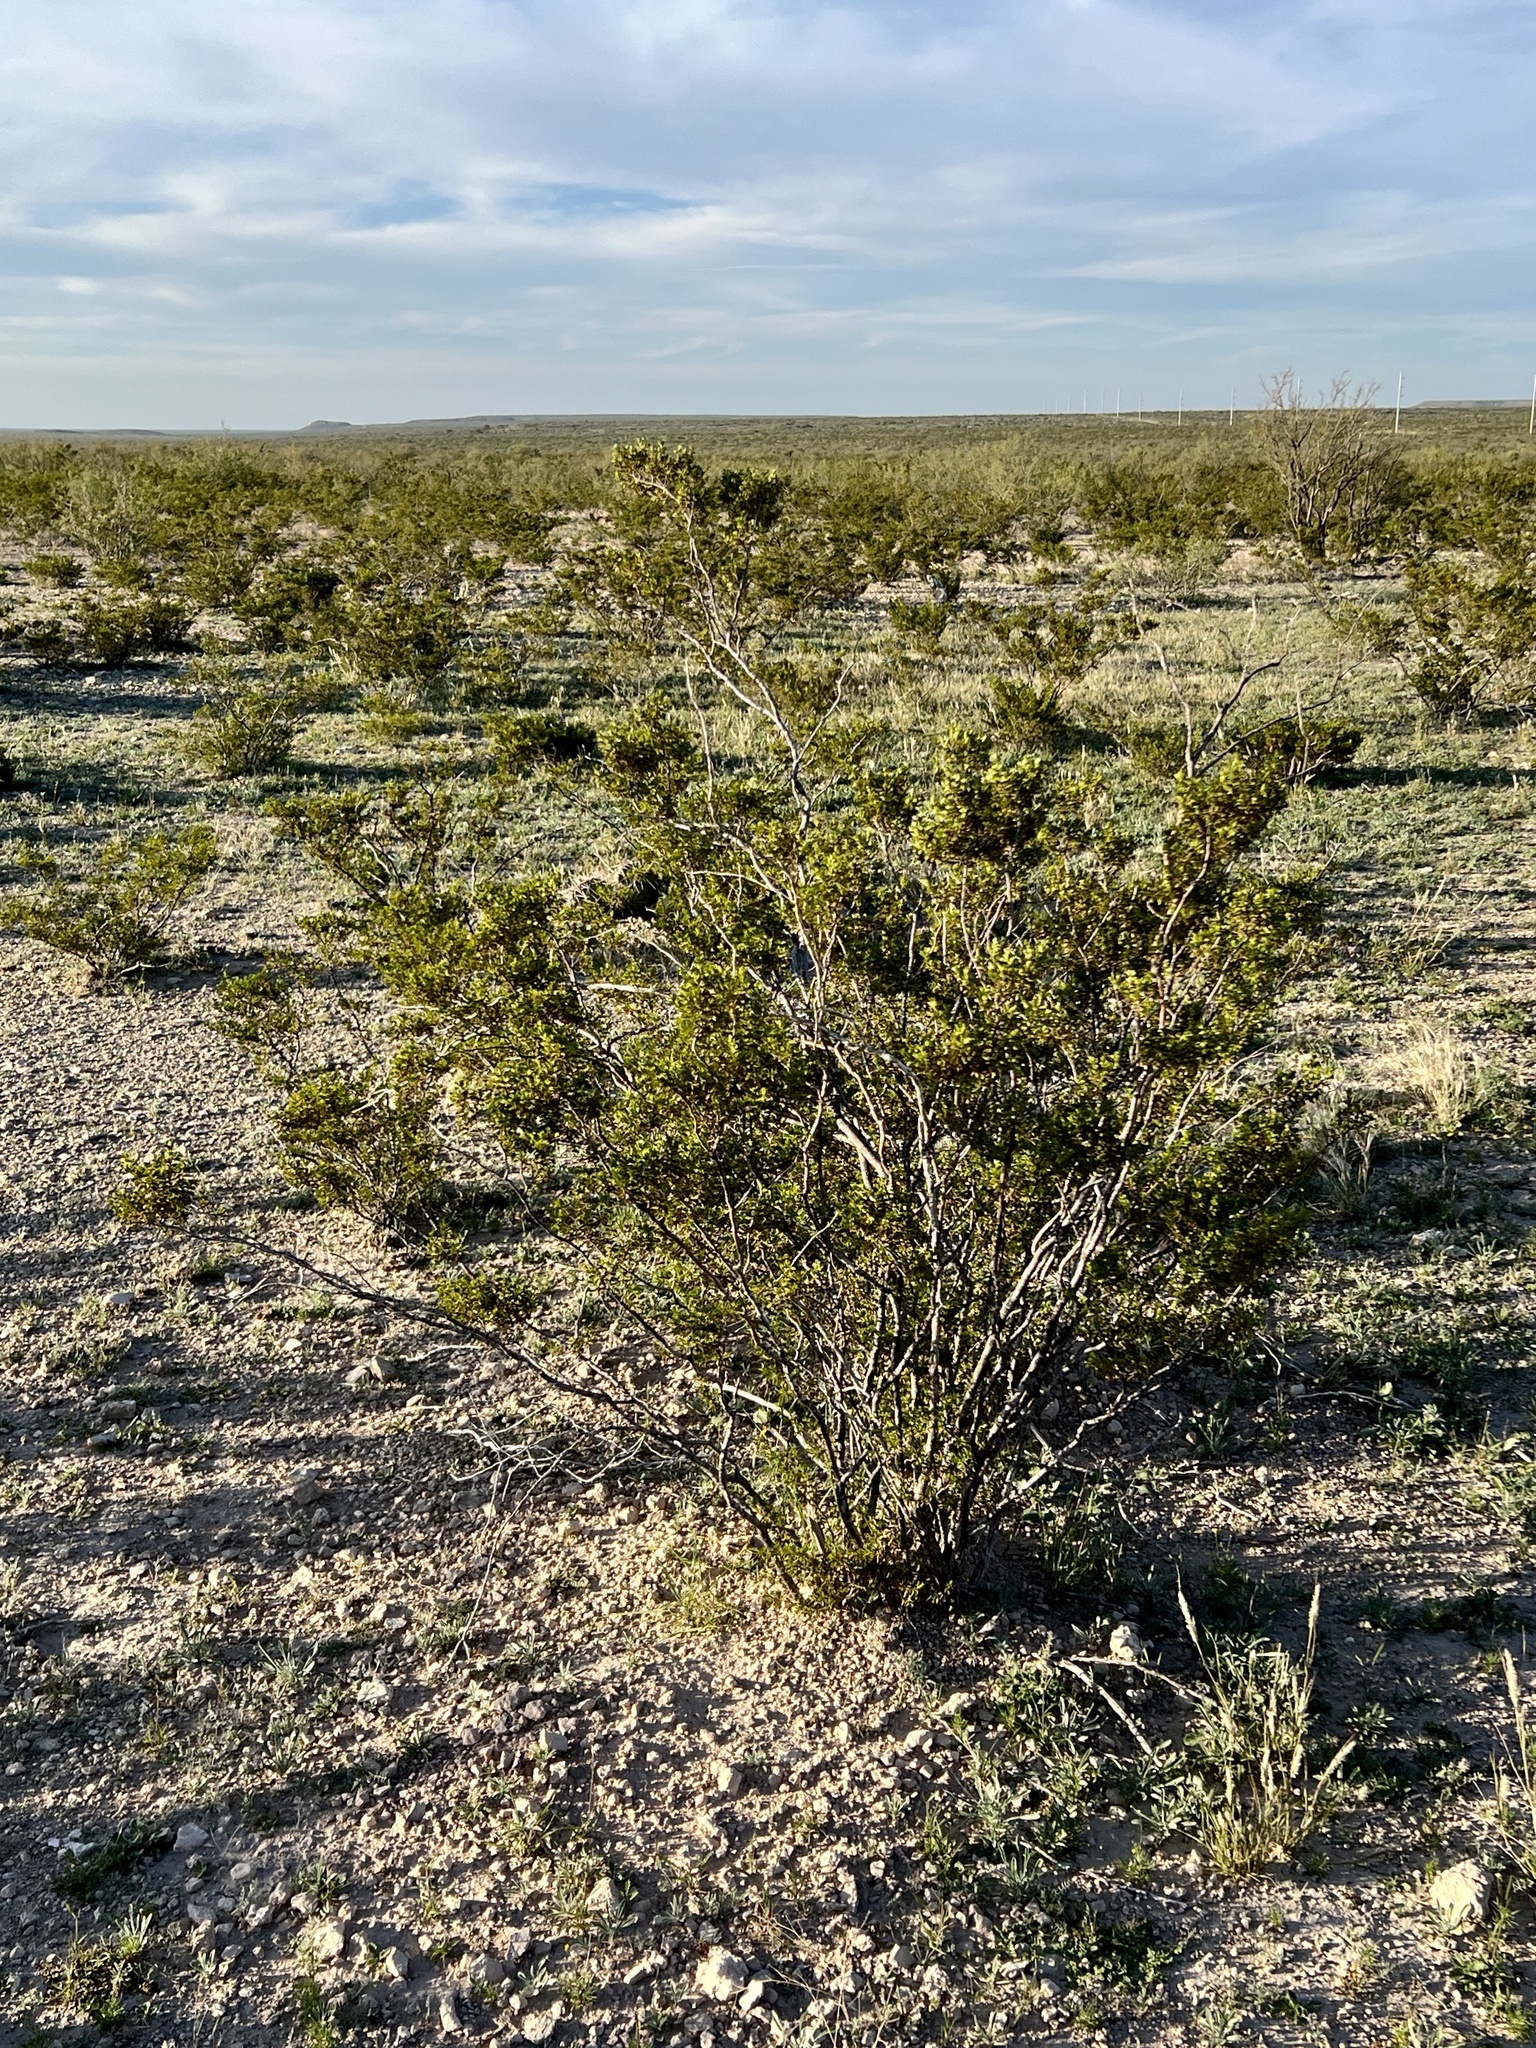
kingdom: Plantae
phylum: Tracheophyta
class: Magnoliopsida
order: Zygophyllales
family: Zygophyllaceae
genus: Larrea
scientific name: Larrea tridentata
